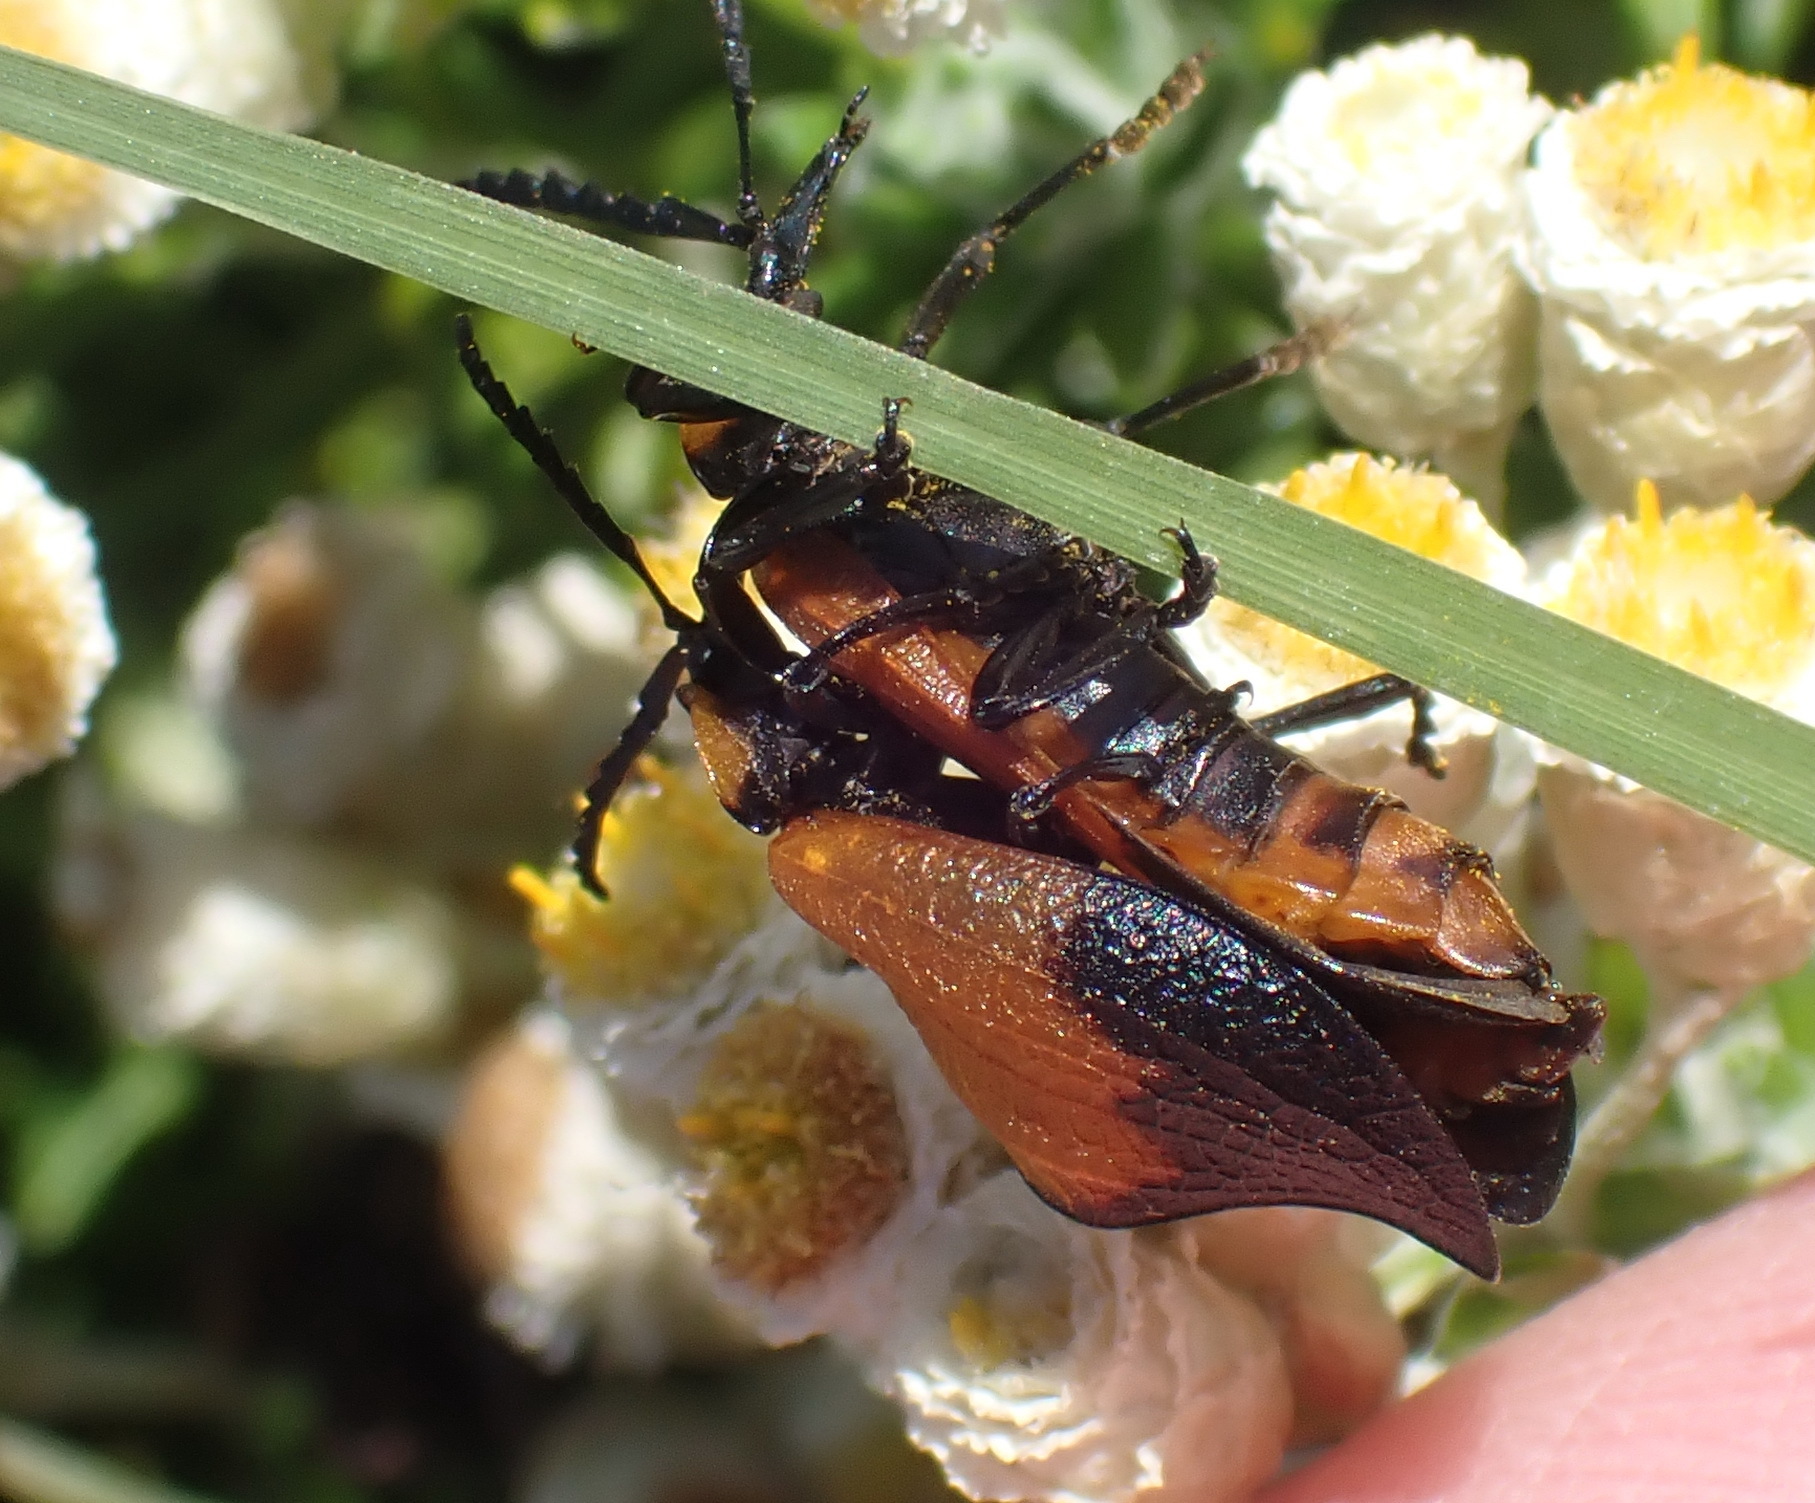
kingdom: Animalia
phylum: Arthropoda
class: Insecta
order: Coleoptera
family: Lycidae
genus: Lycus
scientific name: Lycus
